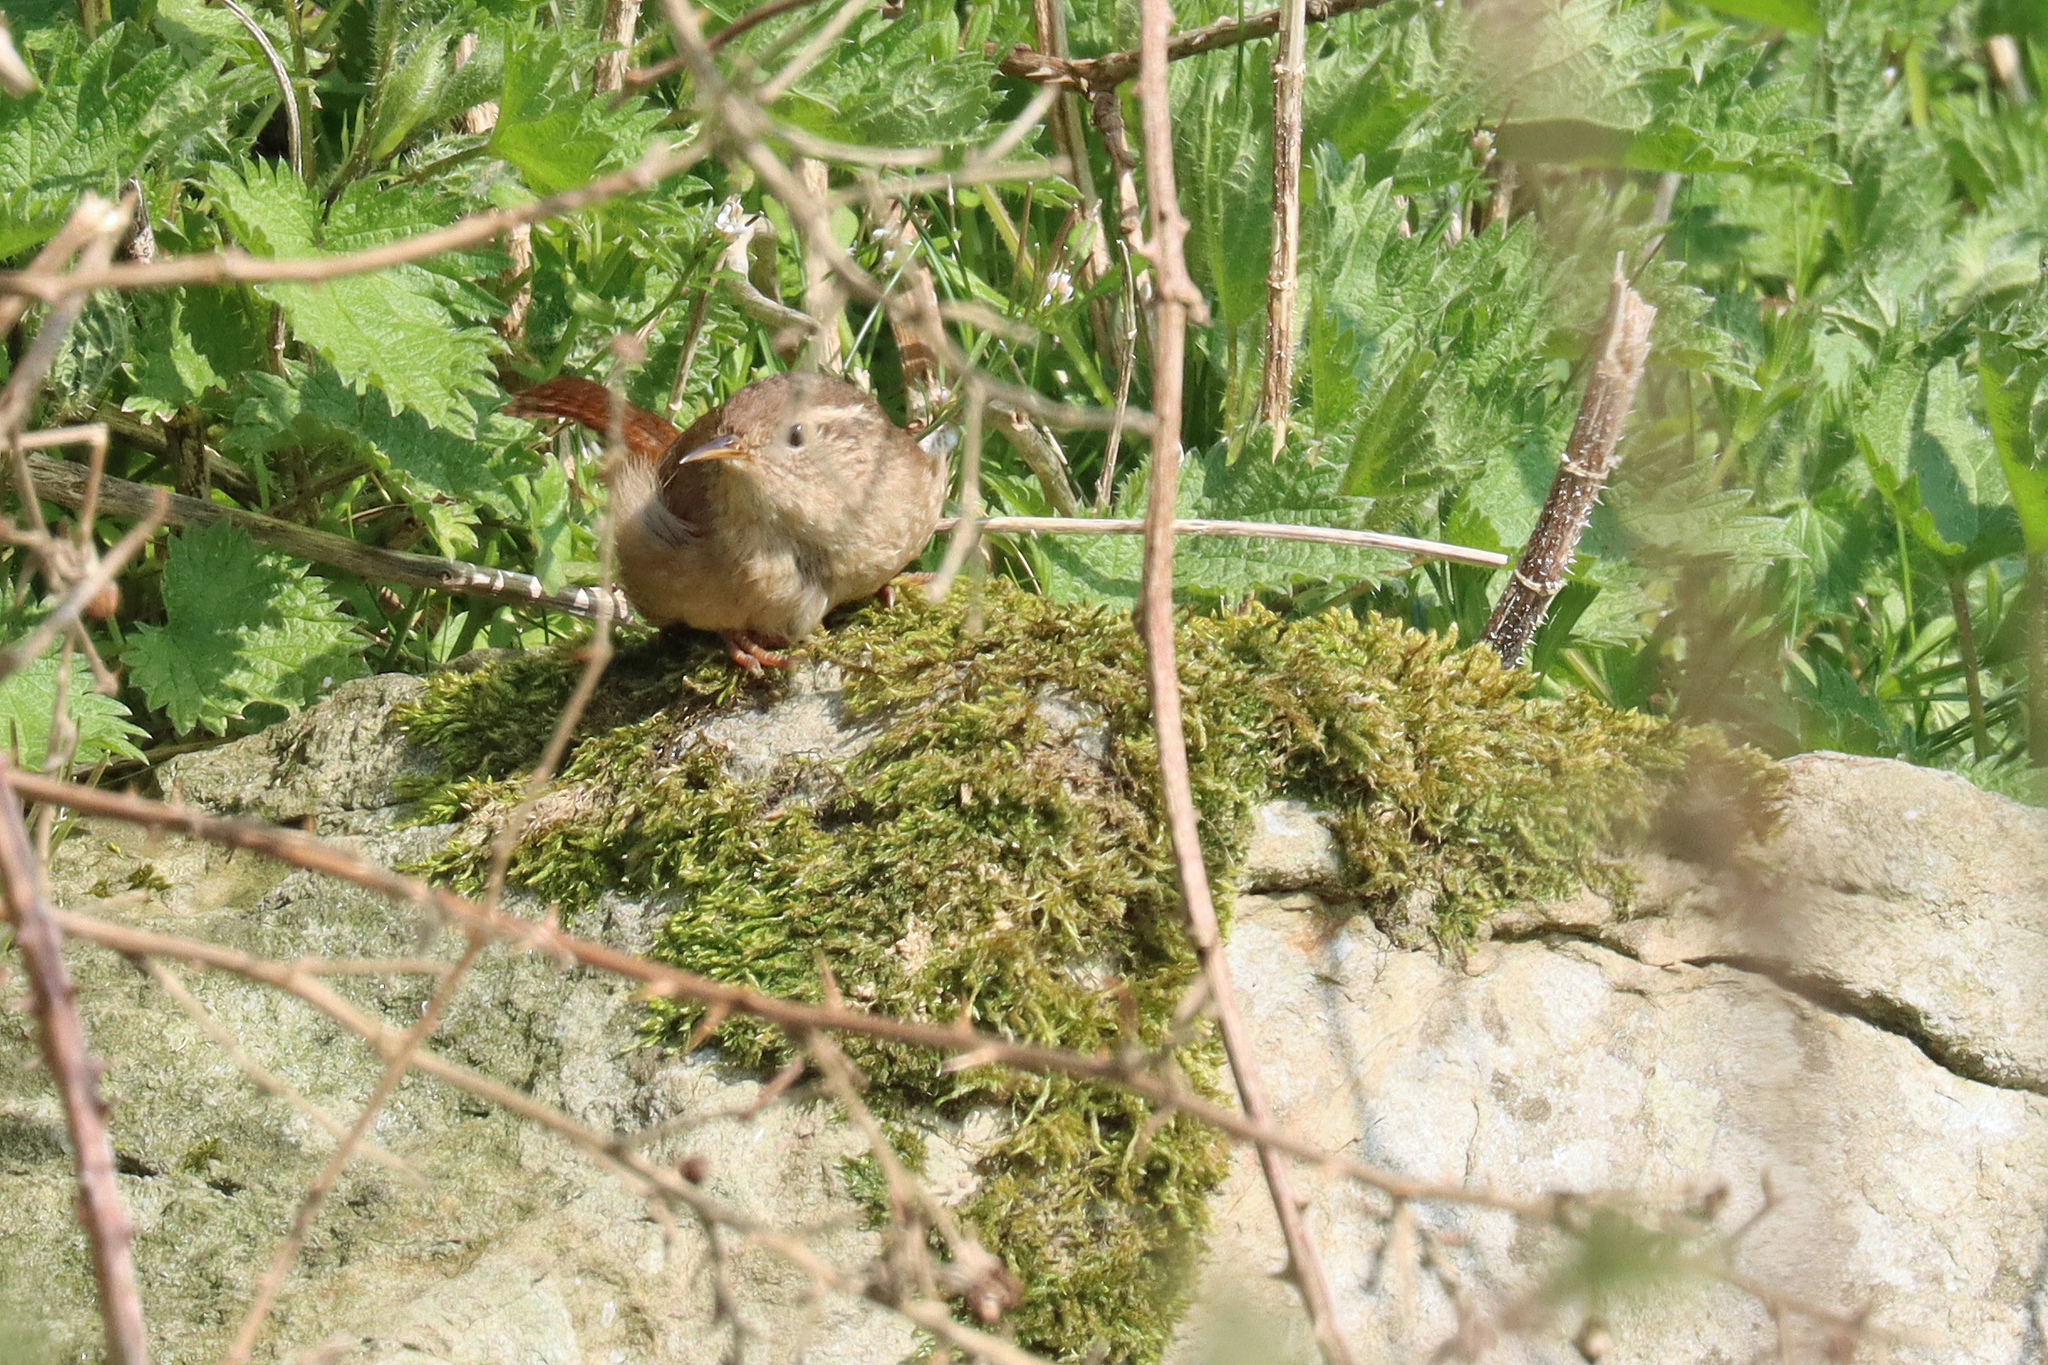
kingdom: Animalia
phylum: Chordata
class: Aves
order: Passeriformes
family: Troglodytidae
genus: Troglodytes
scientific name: Troglodytes troglodytes
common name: Eurasian wren
